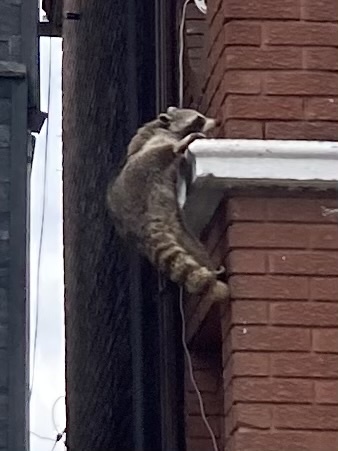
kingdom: Animalia
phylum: Chordata
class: Mammalia
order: Carnivora
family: Procyonidae
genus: Procyon
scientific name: Procyon lotor
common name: Raccoon
